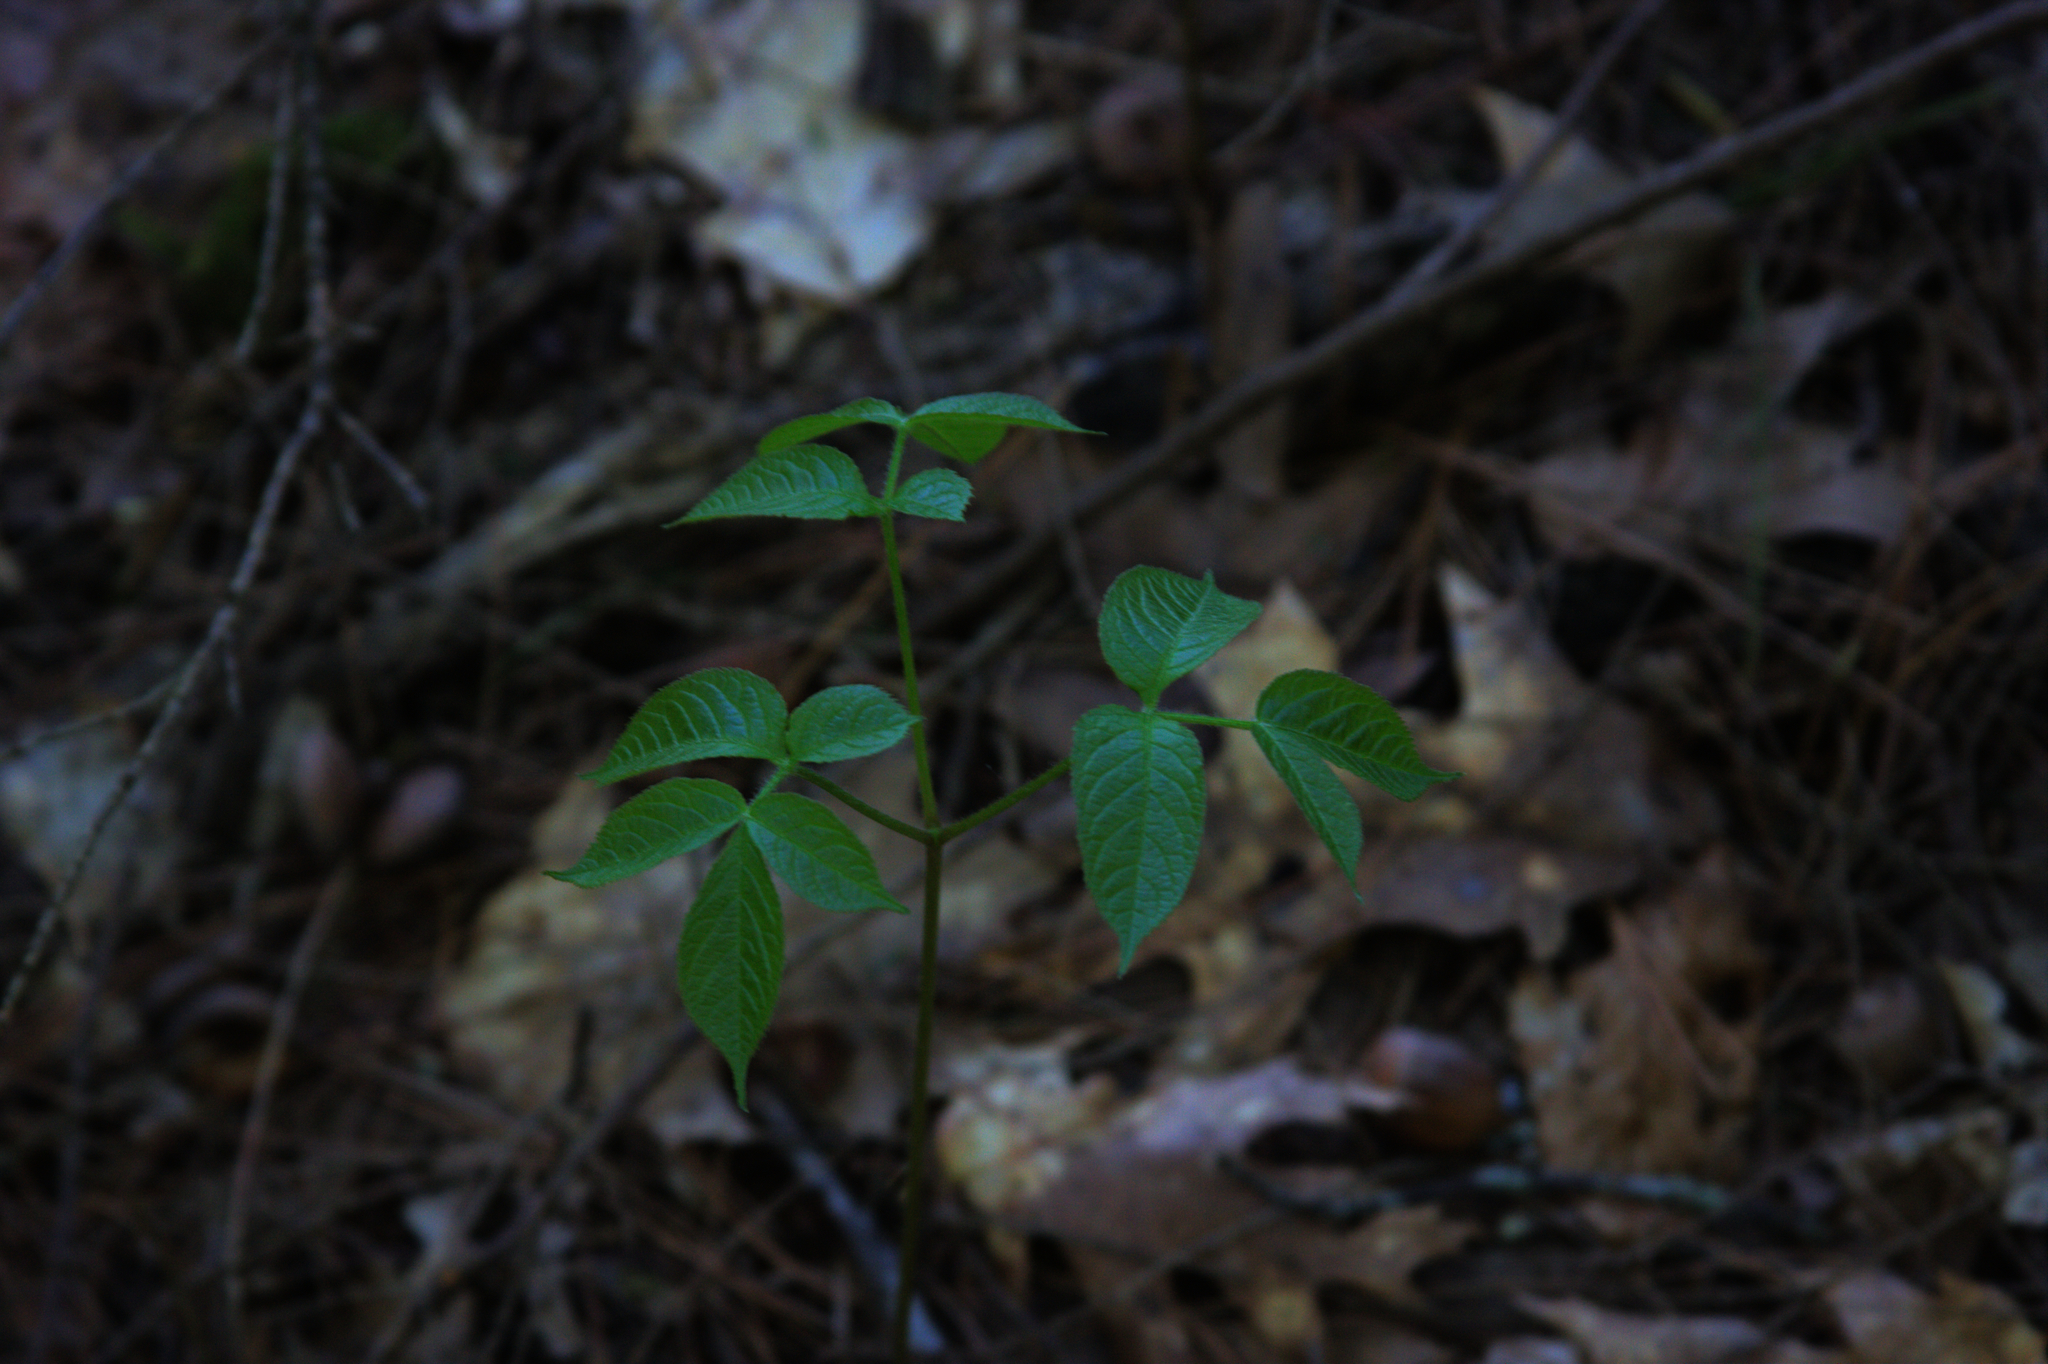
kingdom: Plantae
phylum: Tracheophyta
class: Magnoliopsida
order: Apiales
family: Araliaceae
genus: Aralia
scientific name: Aralia nudicaulis
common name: Wild sarsaparilla
